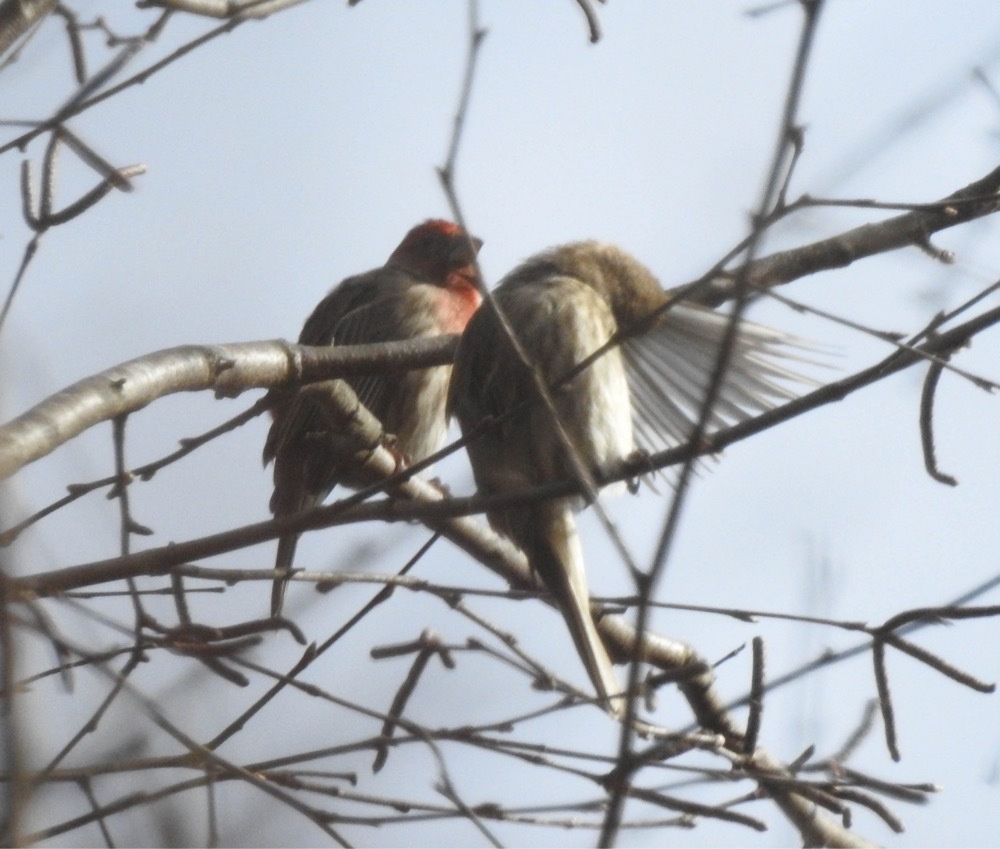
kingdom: Animalia
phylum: Chordata
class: Aves
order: Passeriformes
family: Fringillidae
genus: Haemorhous
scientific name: Haemorhous mexicanus
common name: House finch
